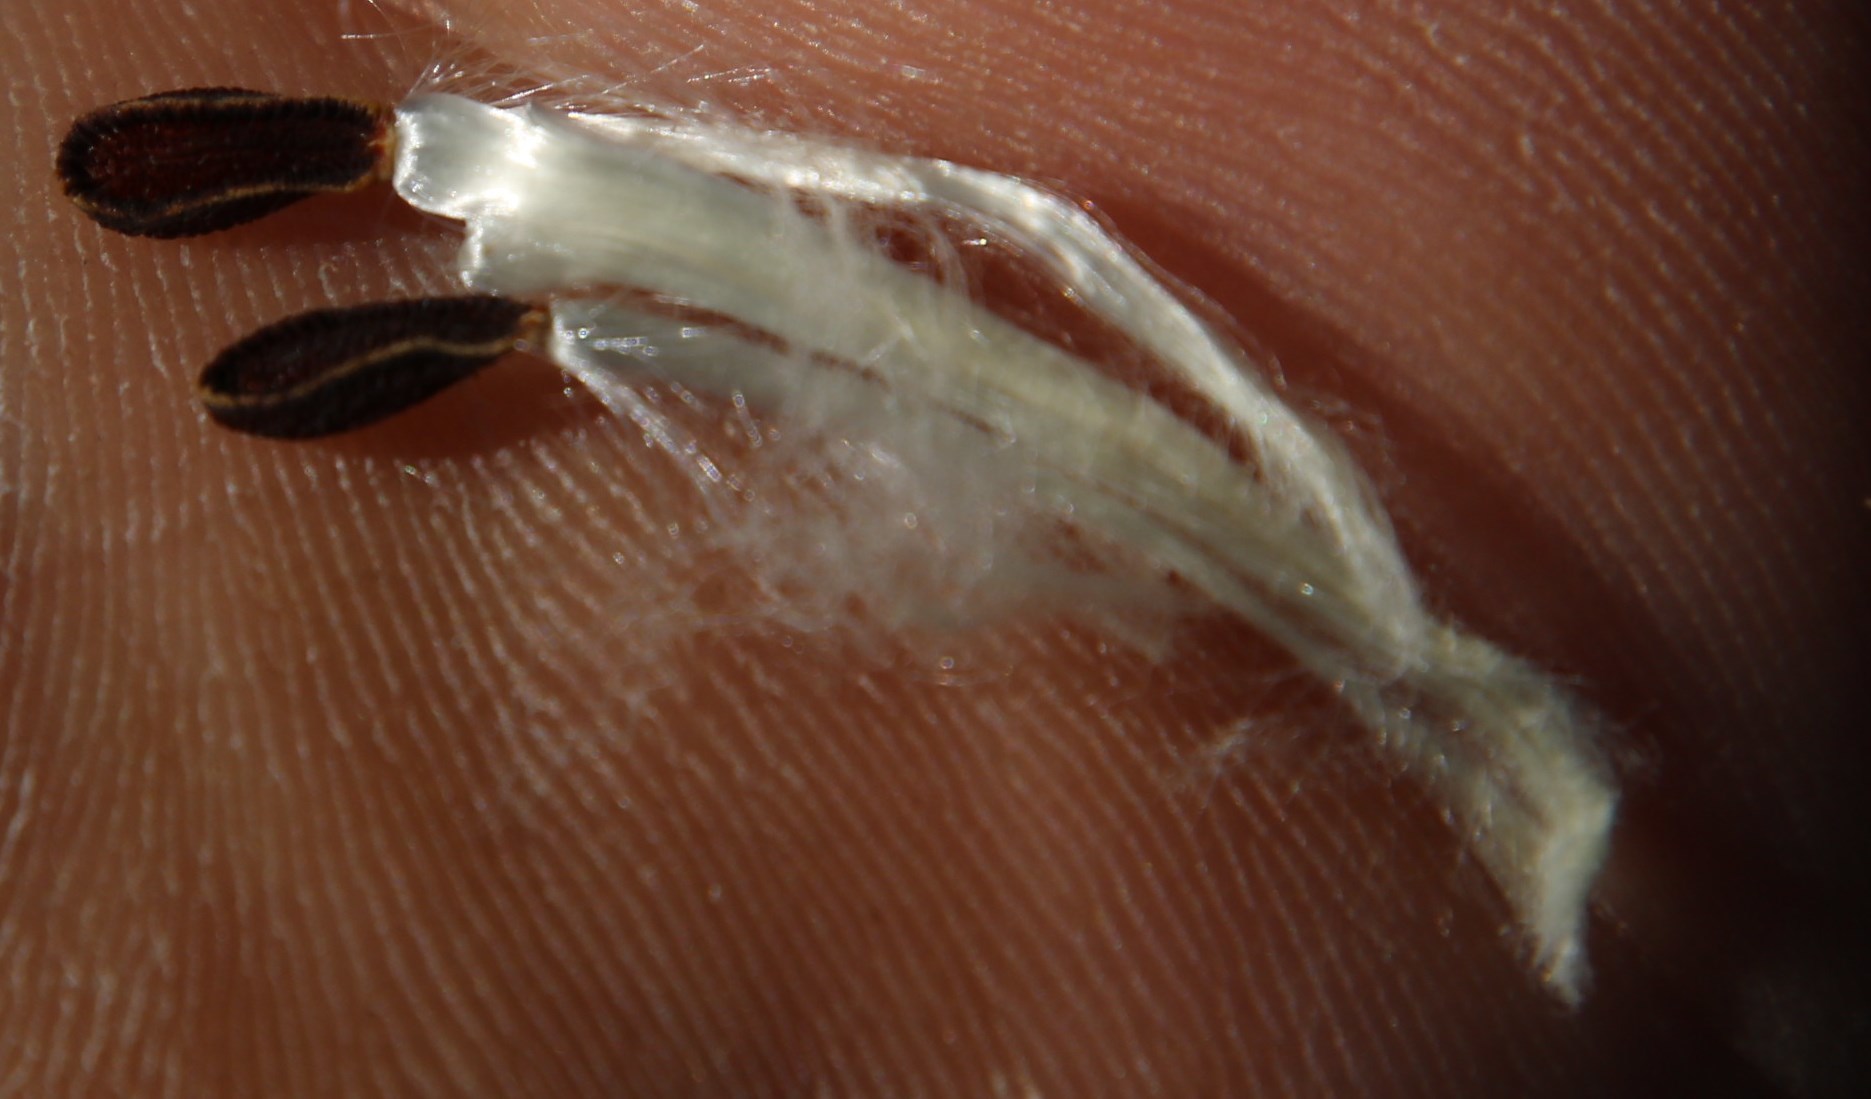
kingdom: Plantae
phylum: Tracheophyta
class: Magnoliopsida
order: Gentianales
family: Apocynaceae
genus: Gomphocarpus
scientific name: Gomphocarpus fruticosus
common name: Milkweed
